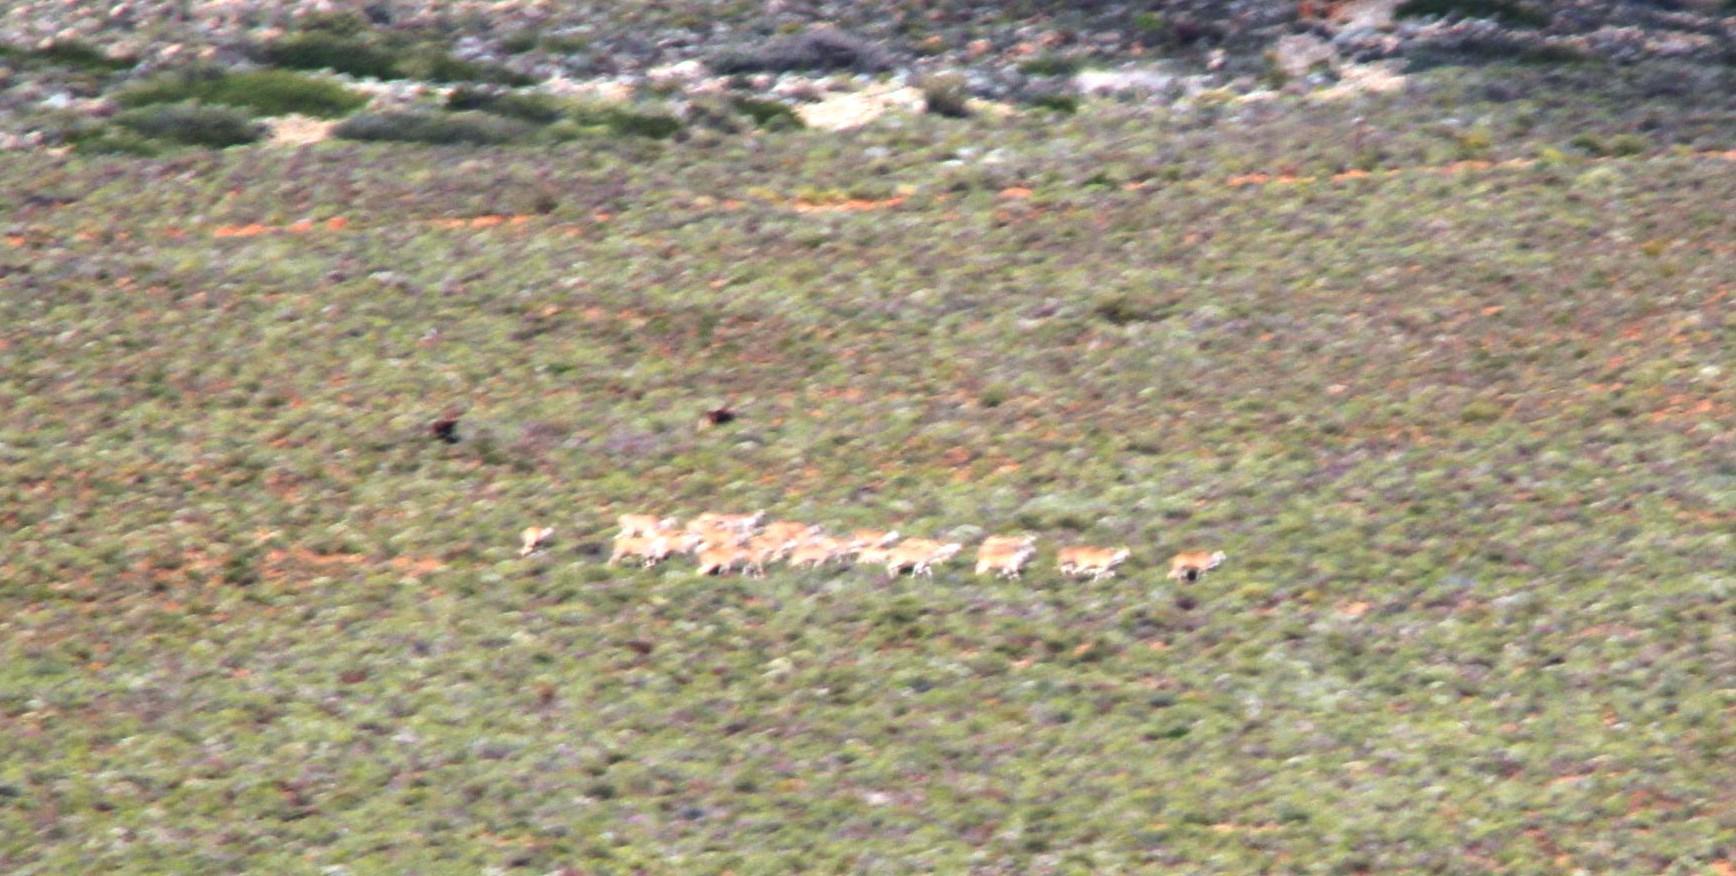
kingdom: Animalia
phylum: Chordata
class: Mammalia
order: Artiodactyla
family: Bovidae
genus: Taurotragus
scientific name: Taurotragus oryx
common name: Common eland
